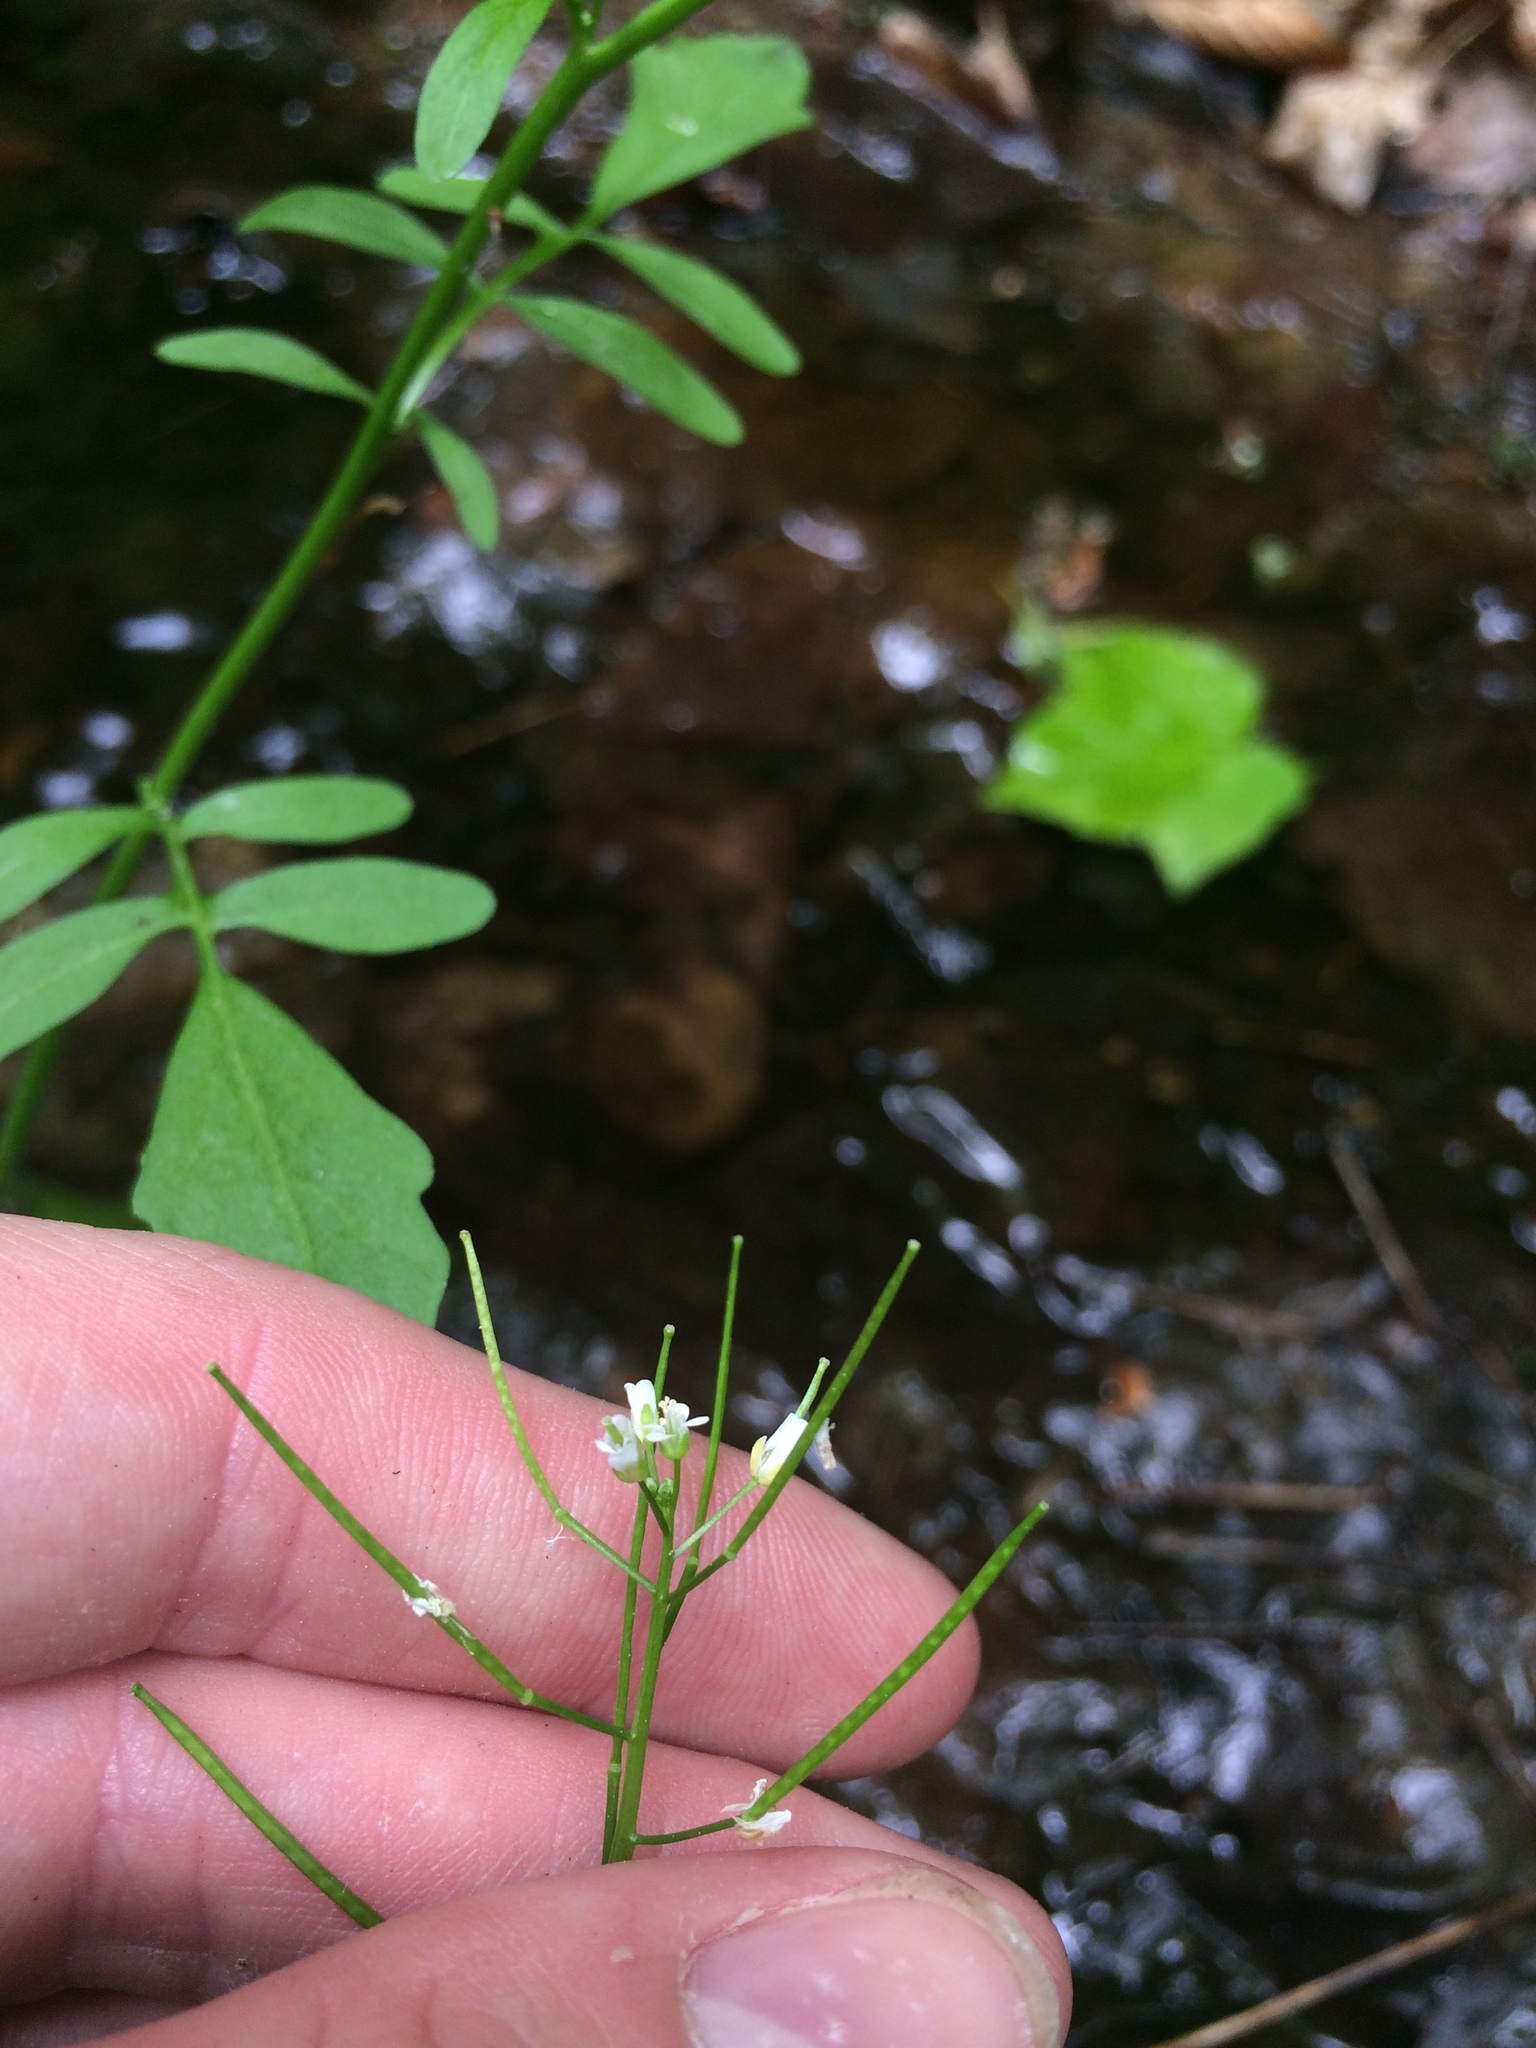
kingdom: Plantae
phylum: Tracheophyta
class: Magnoliopsida
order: Brassicales
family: Brassicaceae
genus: Cardamine
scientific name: Cardamine pensylvanica
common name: Pennsylvania bittercress
